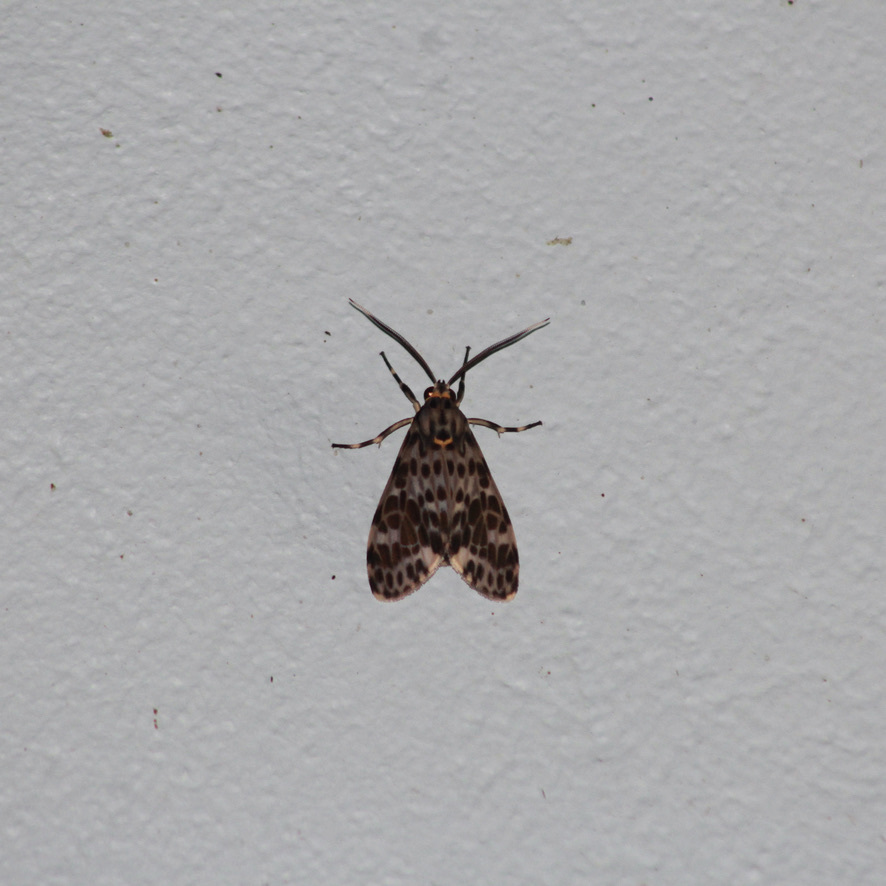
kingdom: Animalia
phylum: Arthropoda
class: Insecta
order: Lepidoptera
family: Erebidae
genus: Eucereon
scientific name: Eucereon punctata
